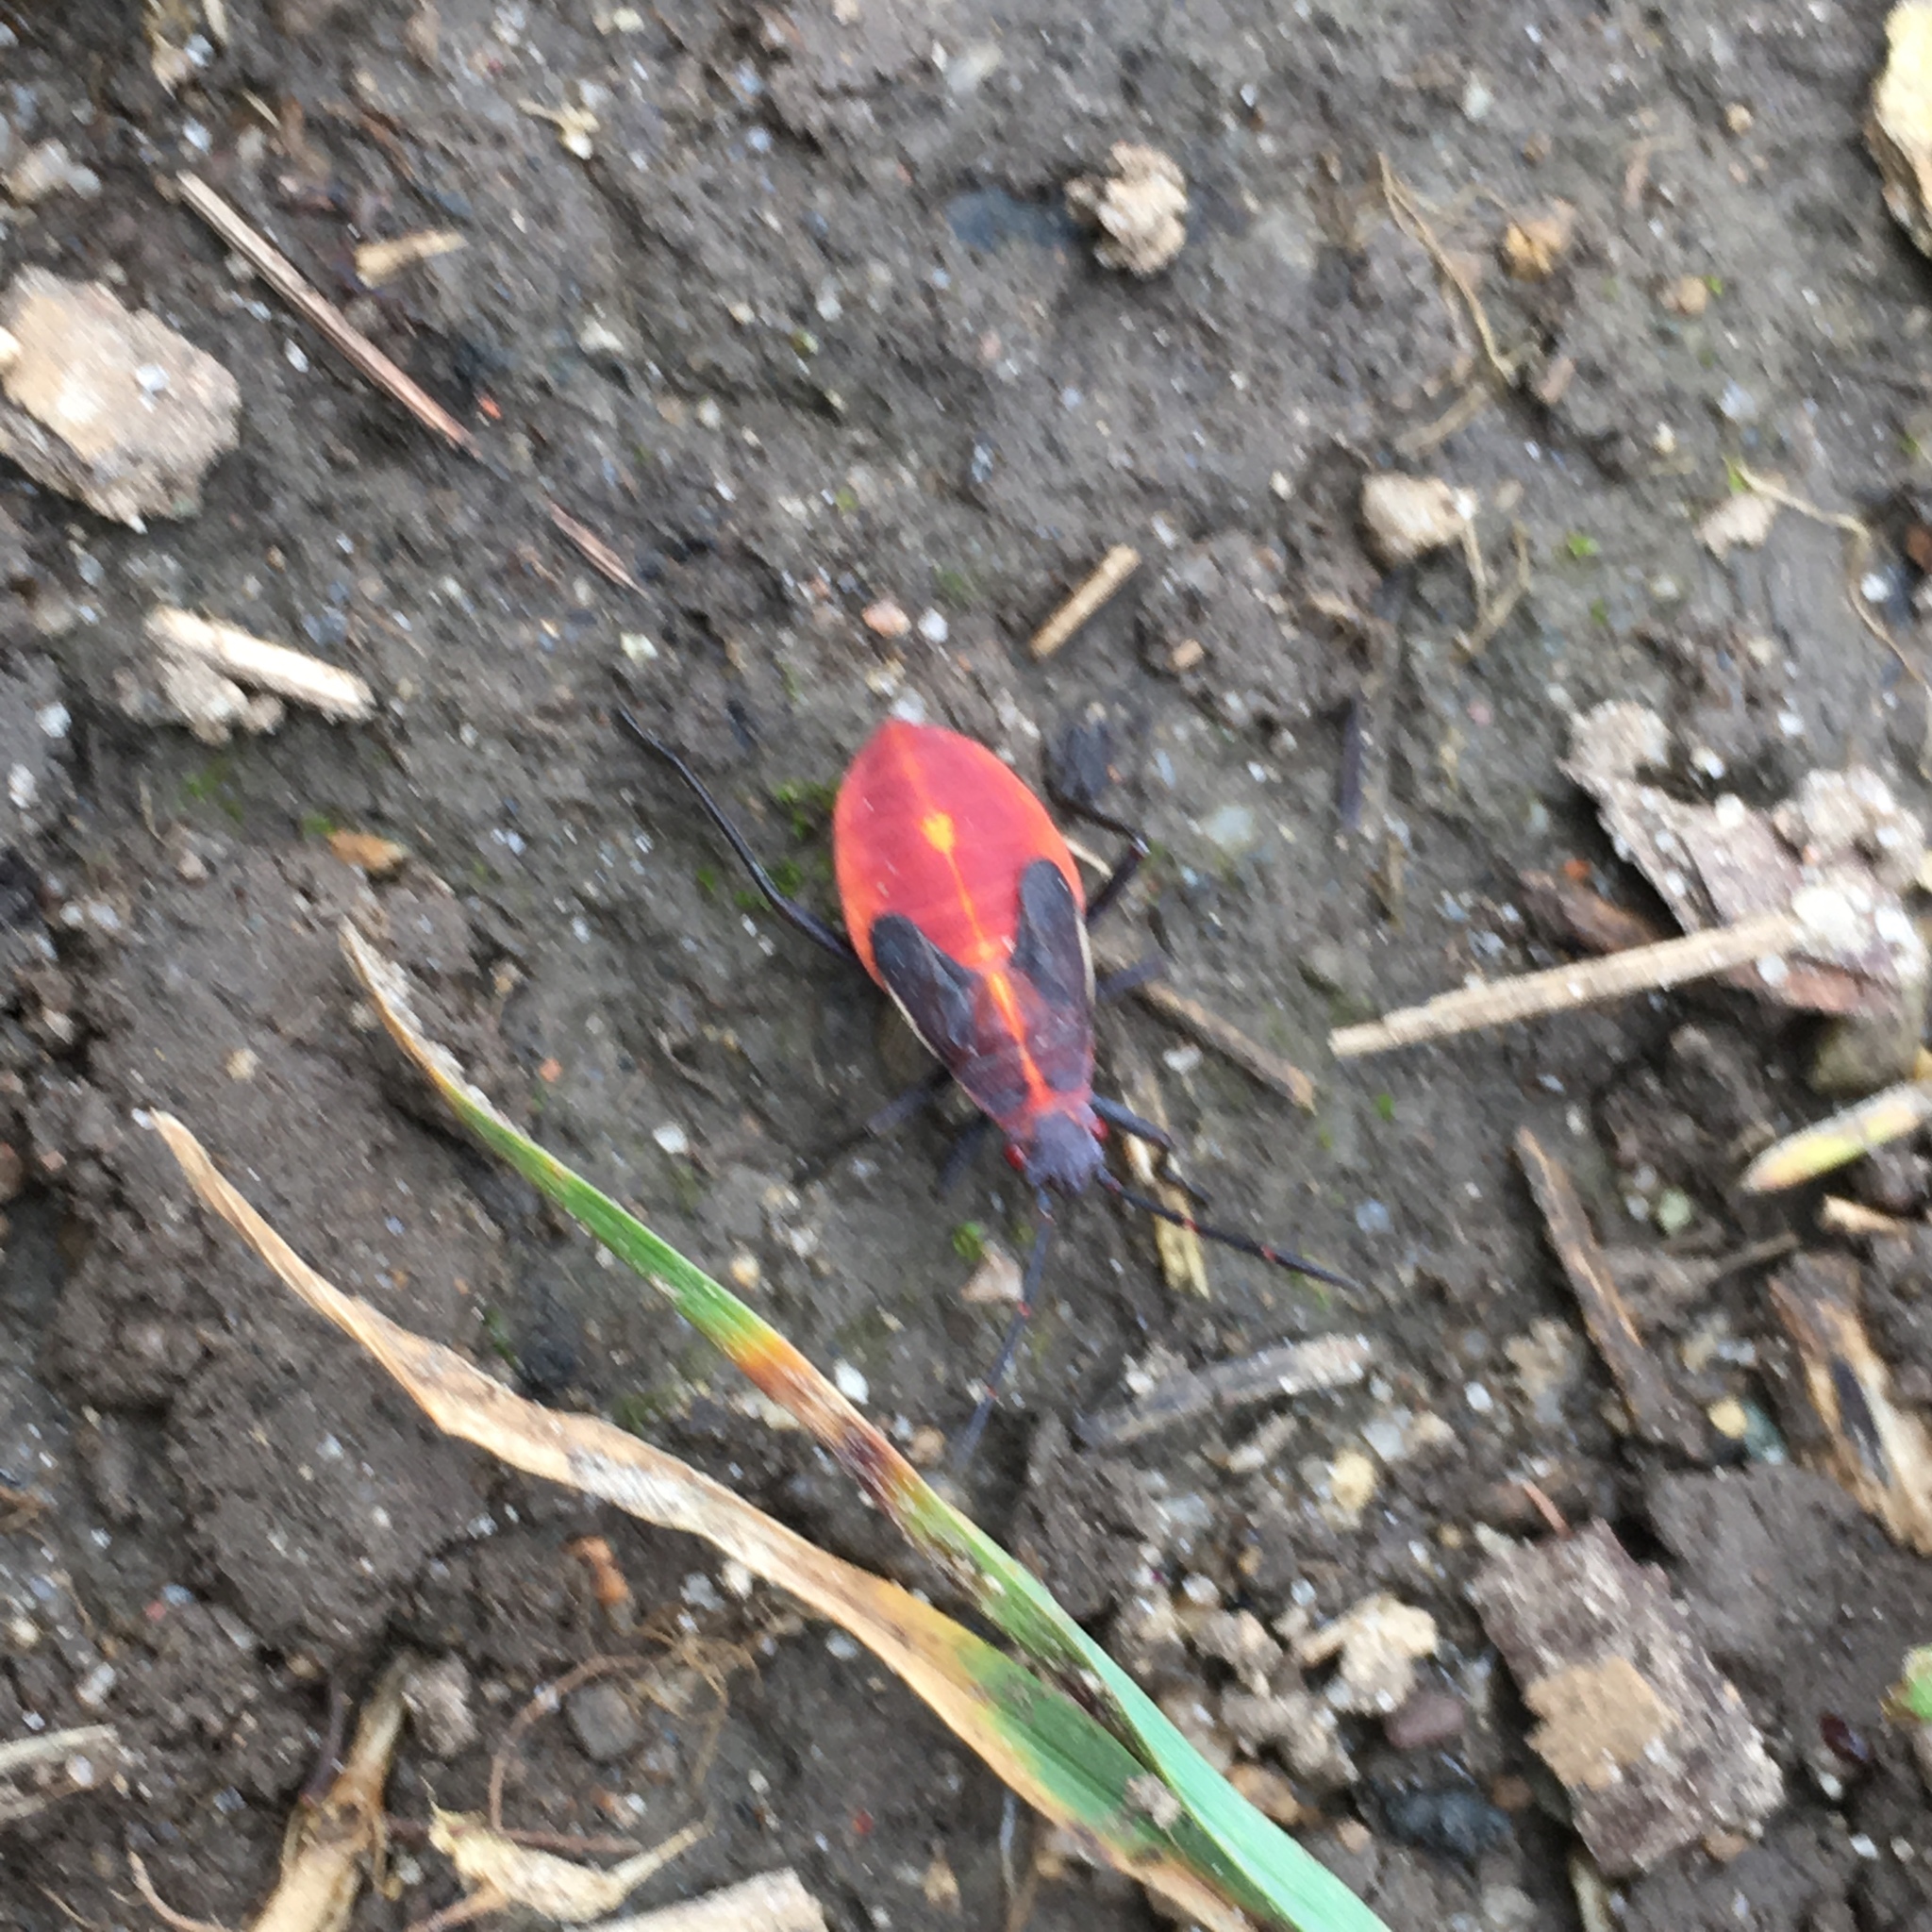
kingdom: Animalia
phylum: Arthropoda
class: Insecta
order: Hemiptera
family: Rhopalidae
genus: Boisea
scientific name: Boisea trivittata
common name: Boxelder bug
